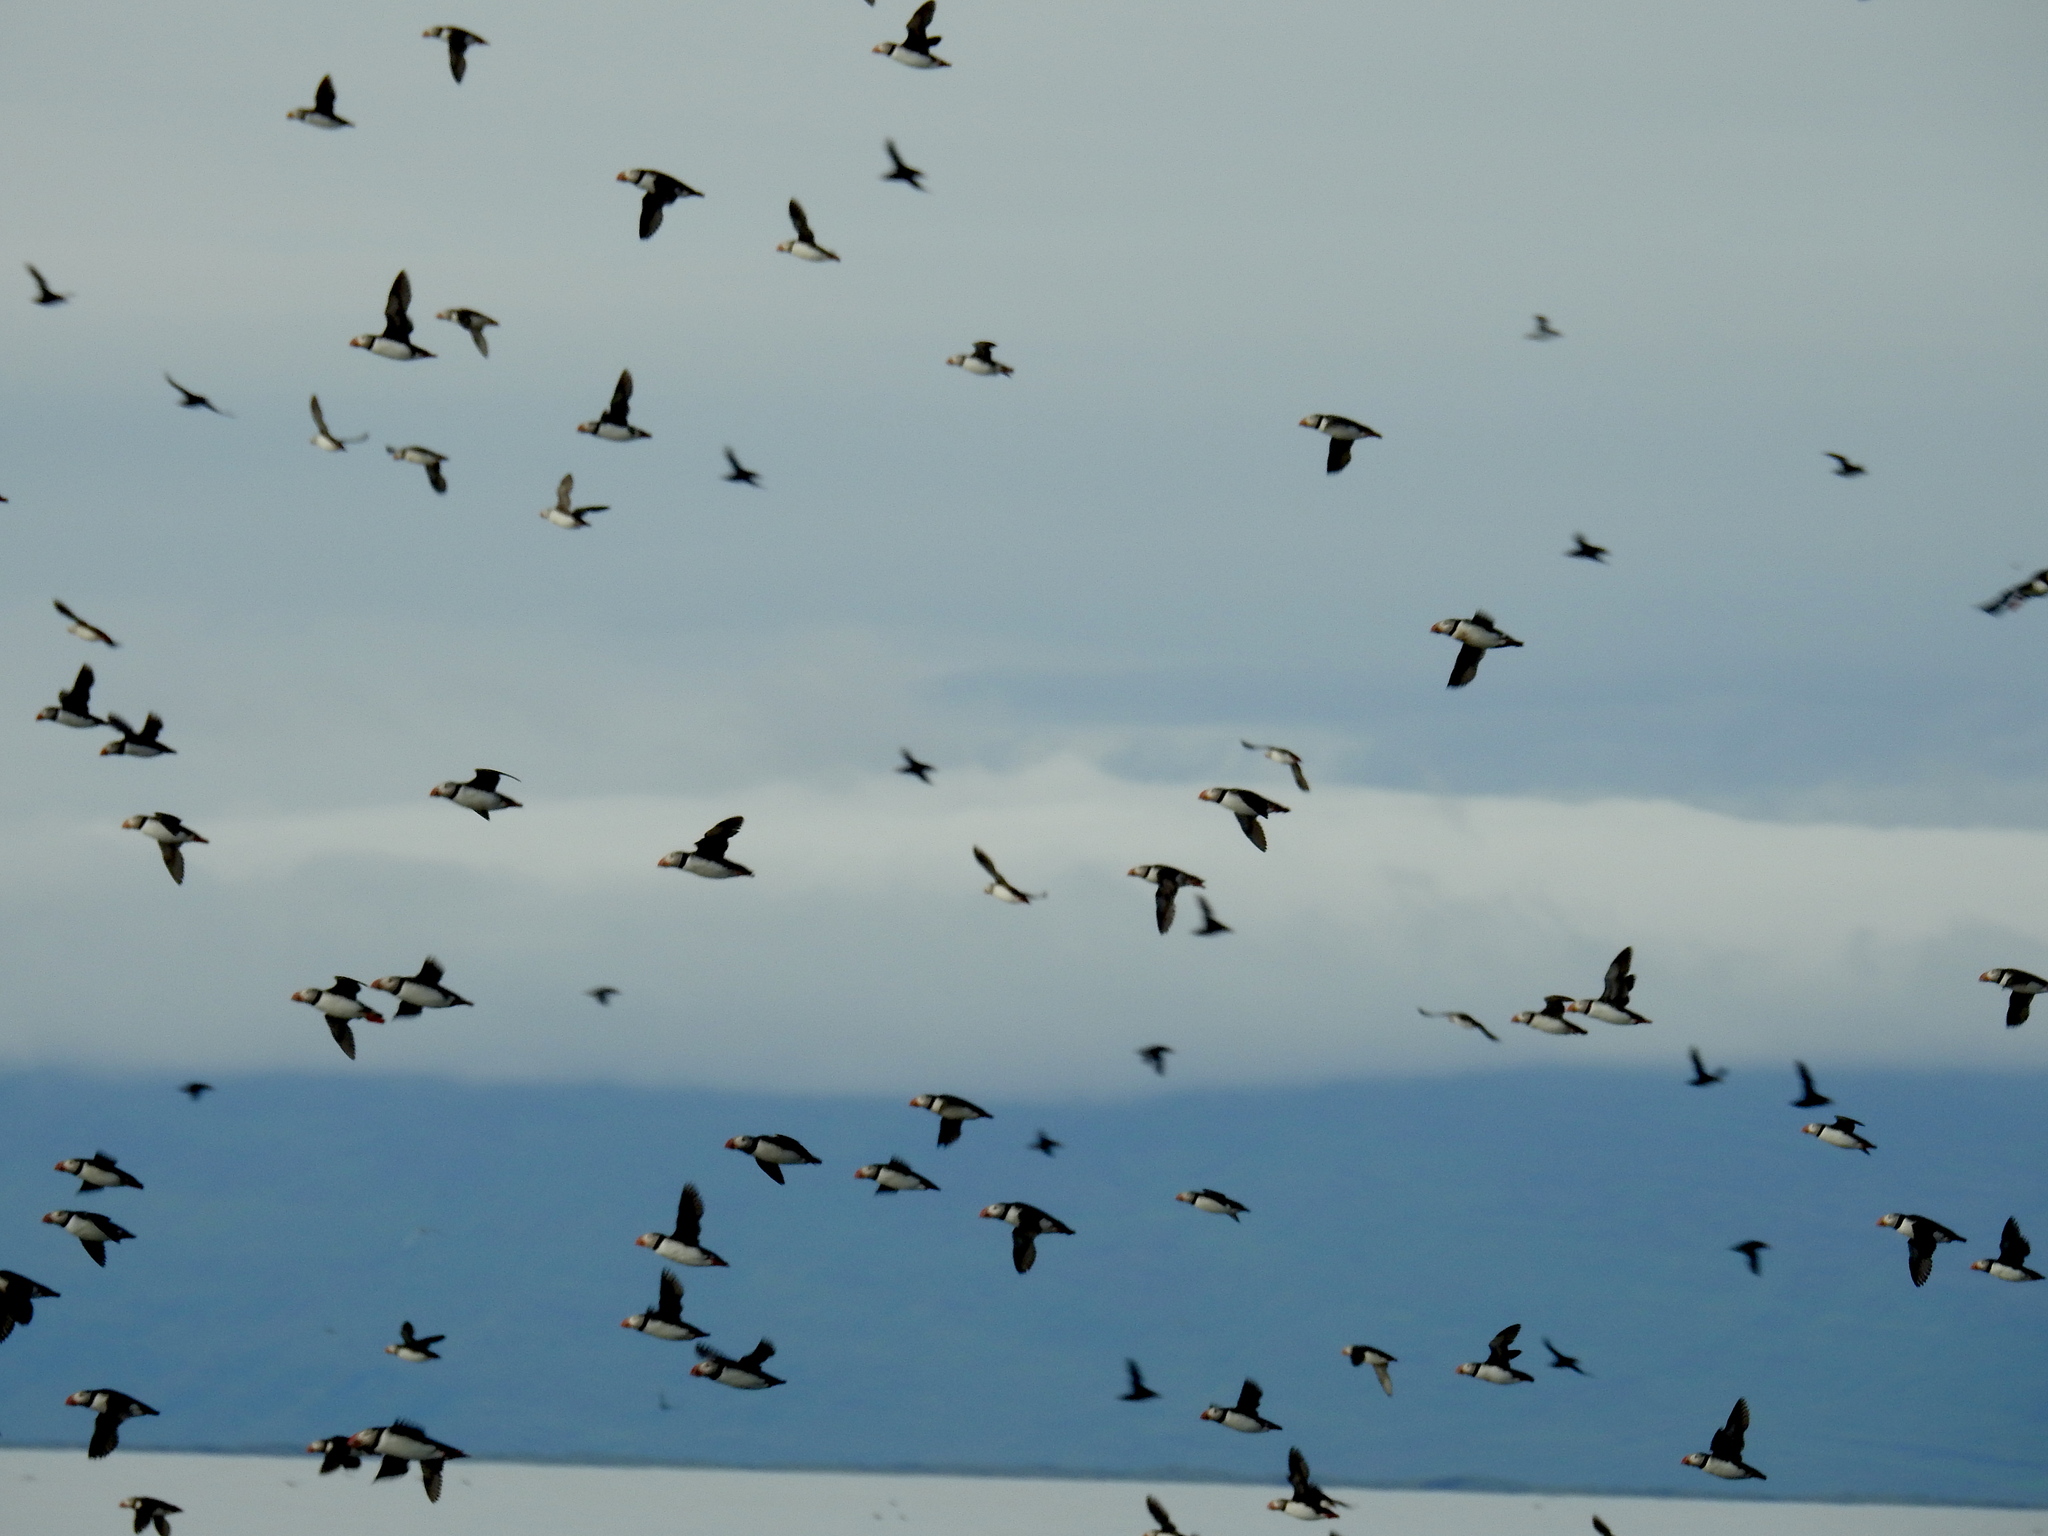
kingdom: Animalia
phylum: Chordata
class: Aves
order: Charadriiformes
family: Alcidae
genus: Fratercula
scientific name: Fratercula arctica
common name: Atlantic puffin
